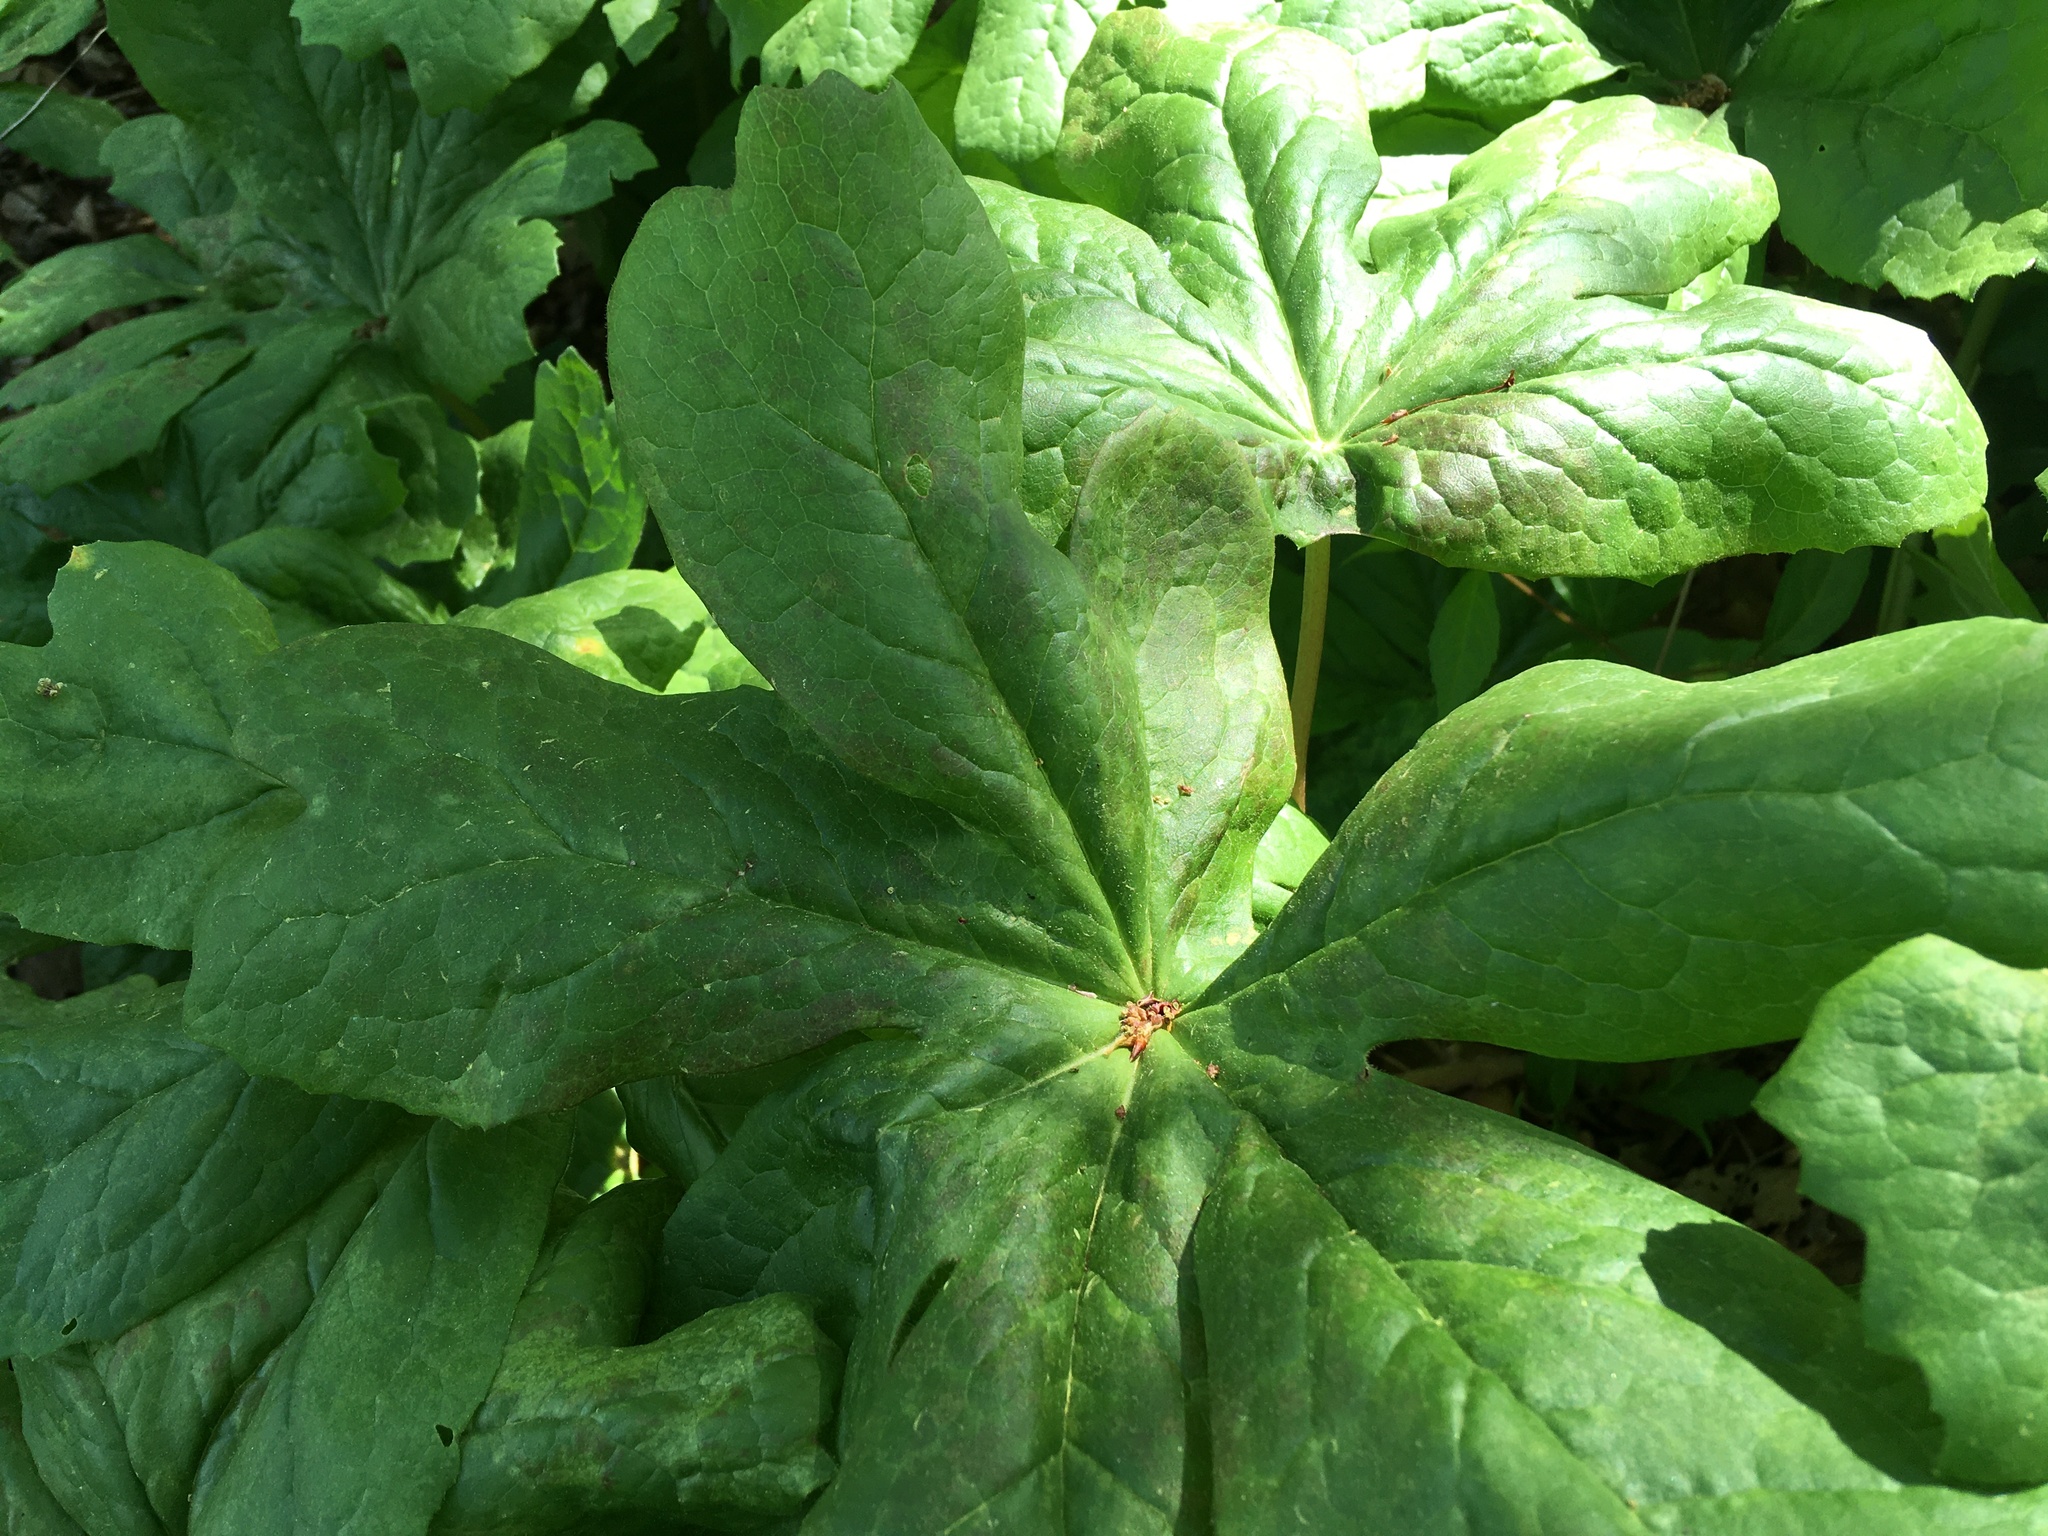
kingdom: Plantae
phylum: Tracheophyta
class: Magnoliopsida
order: Ranunculales
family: Berberidaceae
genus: Podophyllum
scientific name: Podophyllum peltatum
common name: Wild mandrake
